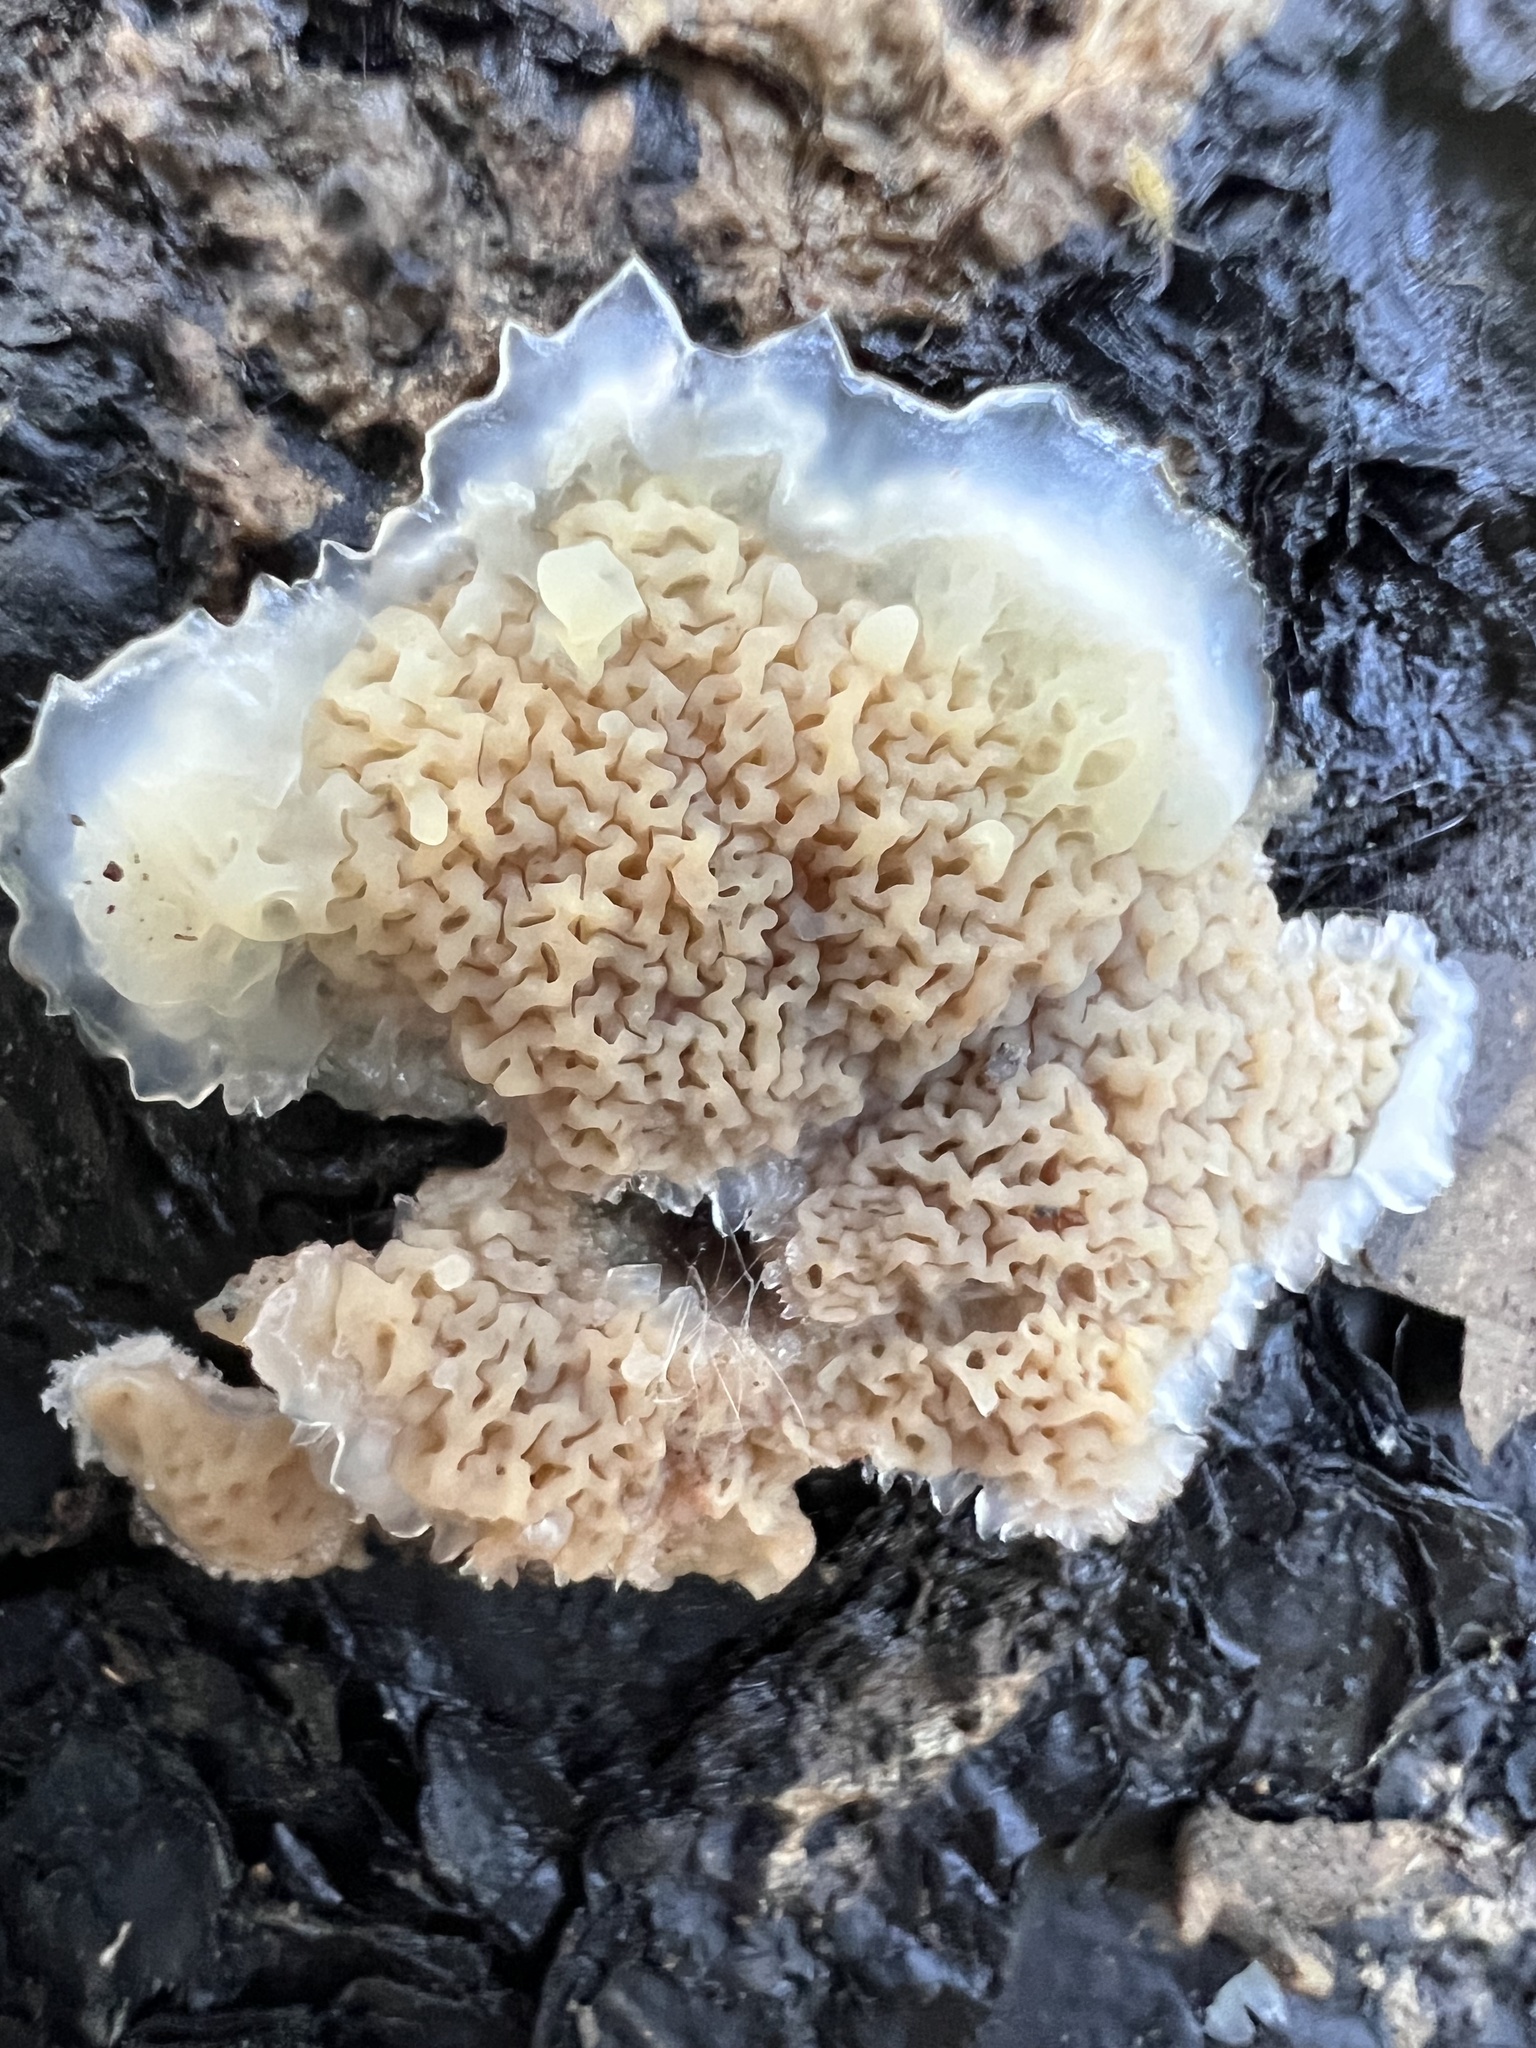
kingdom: Fungi
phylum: Basidiomycota
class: Agaricomycetes
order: Polyporales
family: Meruliaceae
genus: Phlebia
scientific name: Phlebia tremellosa
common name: Jelly rot
